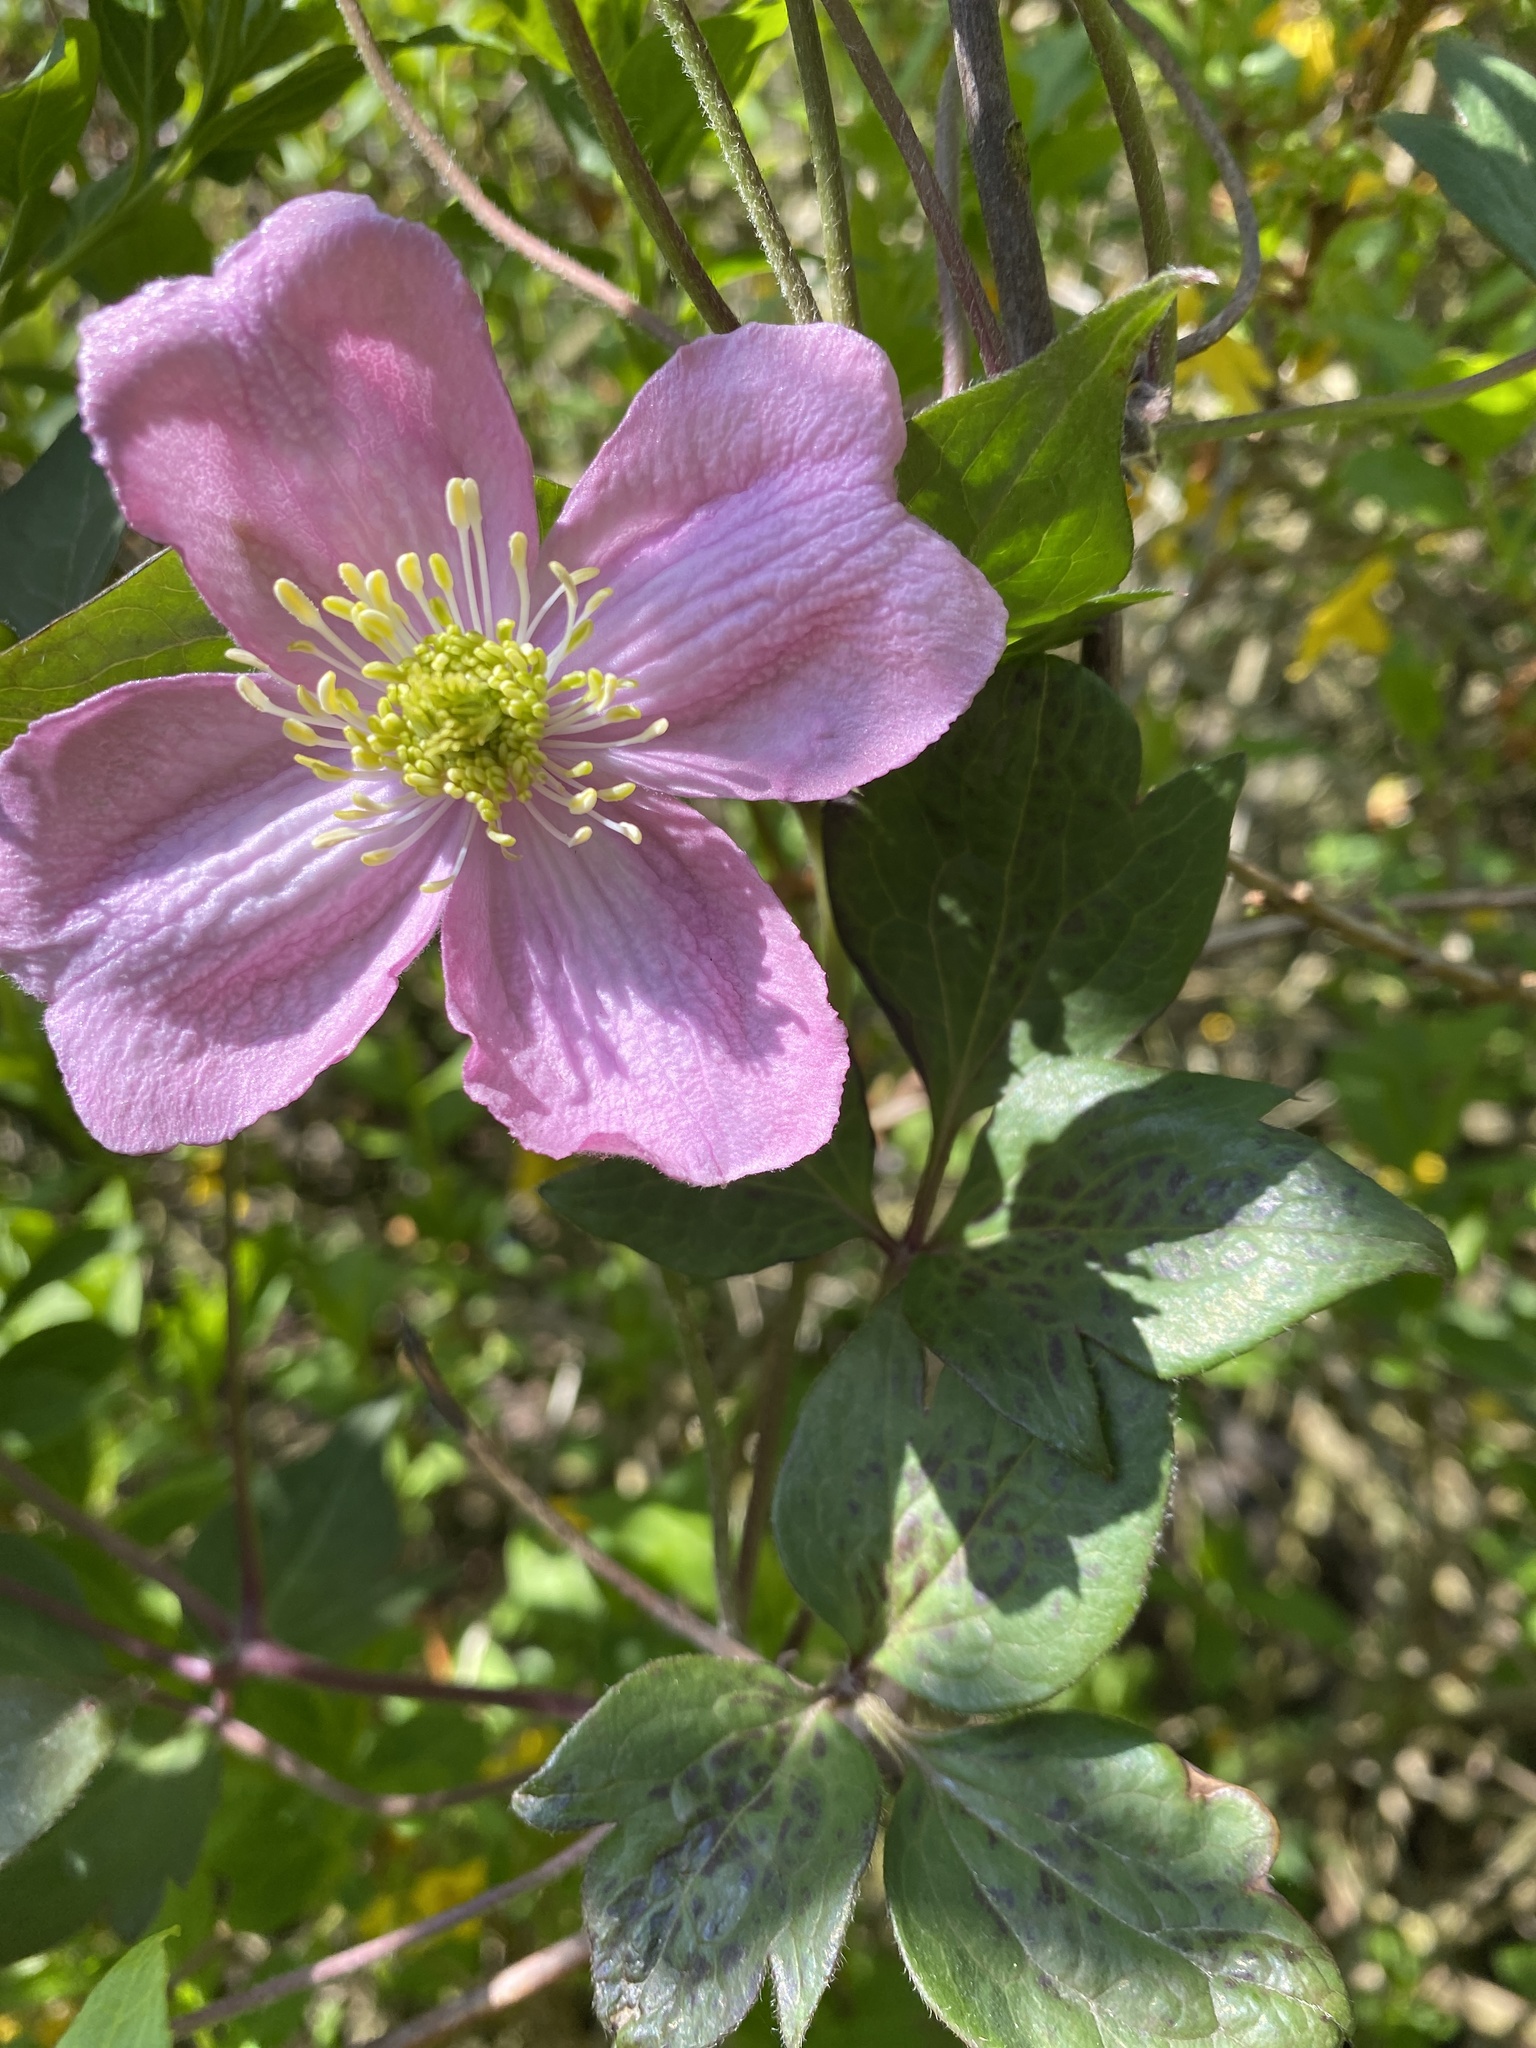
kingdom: Plantae
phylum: Tracheophyta
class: Magnoliopsida
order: Ranunculales
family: Ranunculaceae
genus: Clematis
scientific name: Clematis montana
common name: Himalayan clematis
